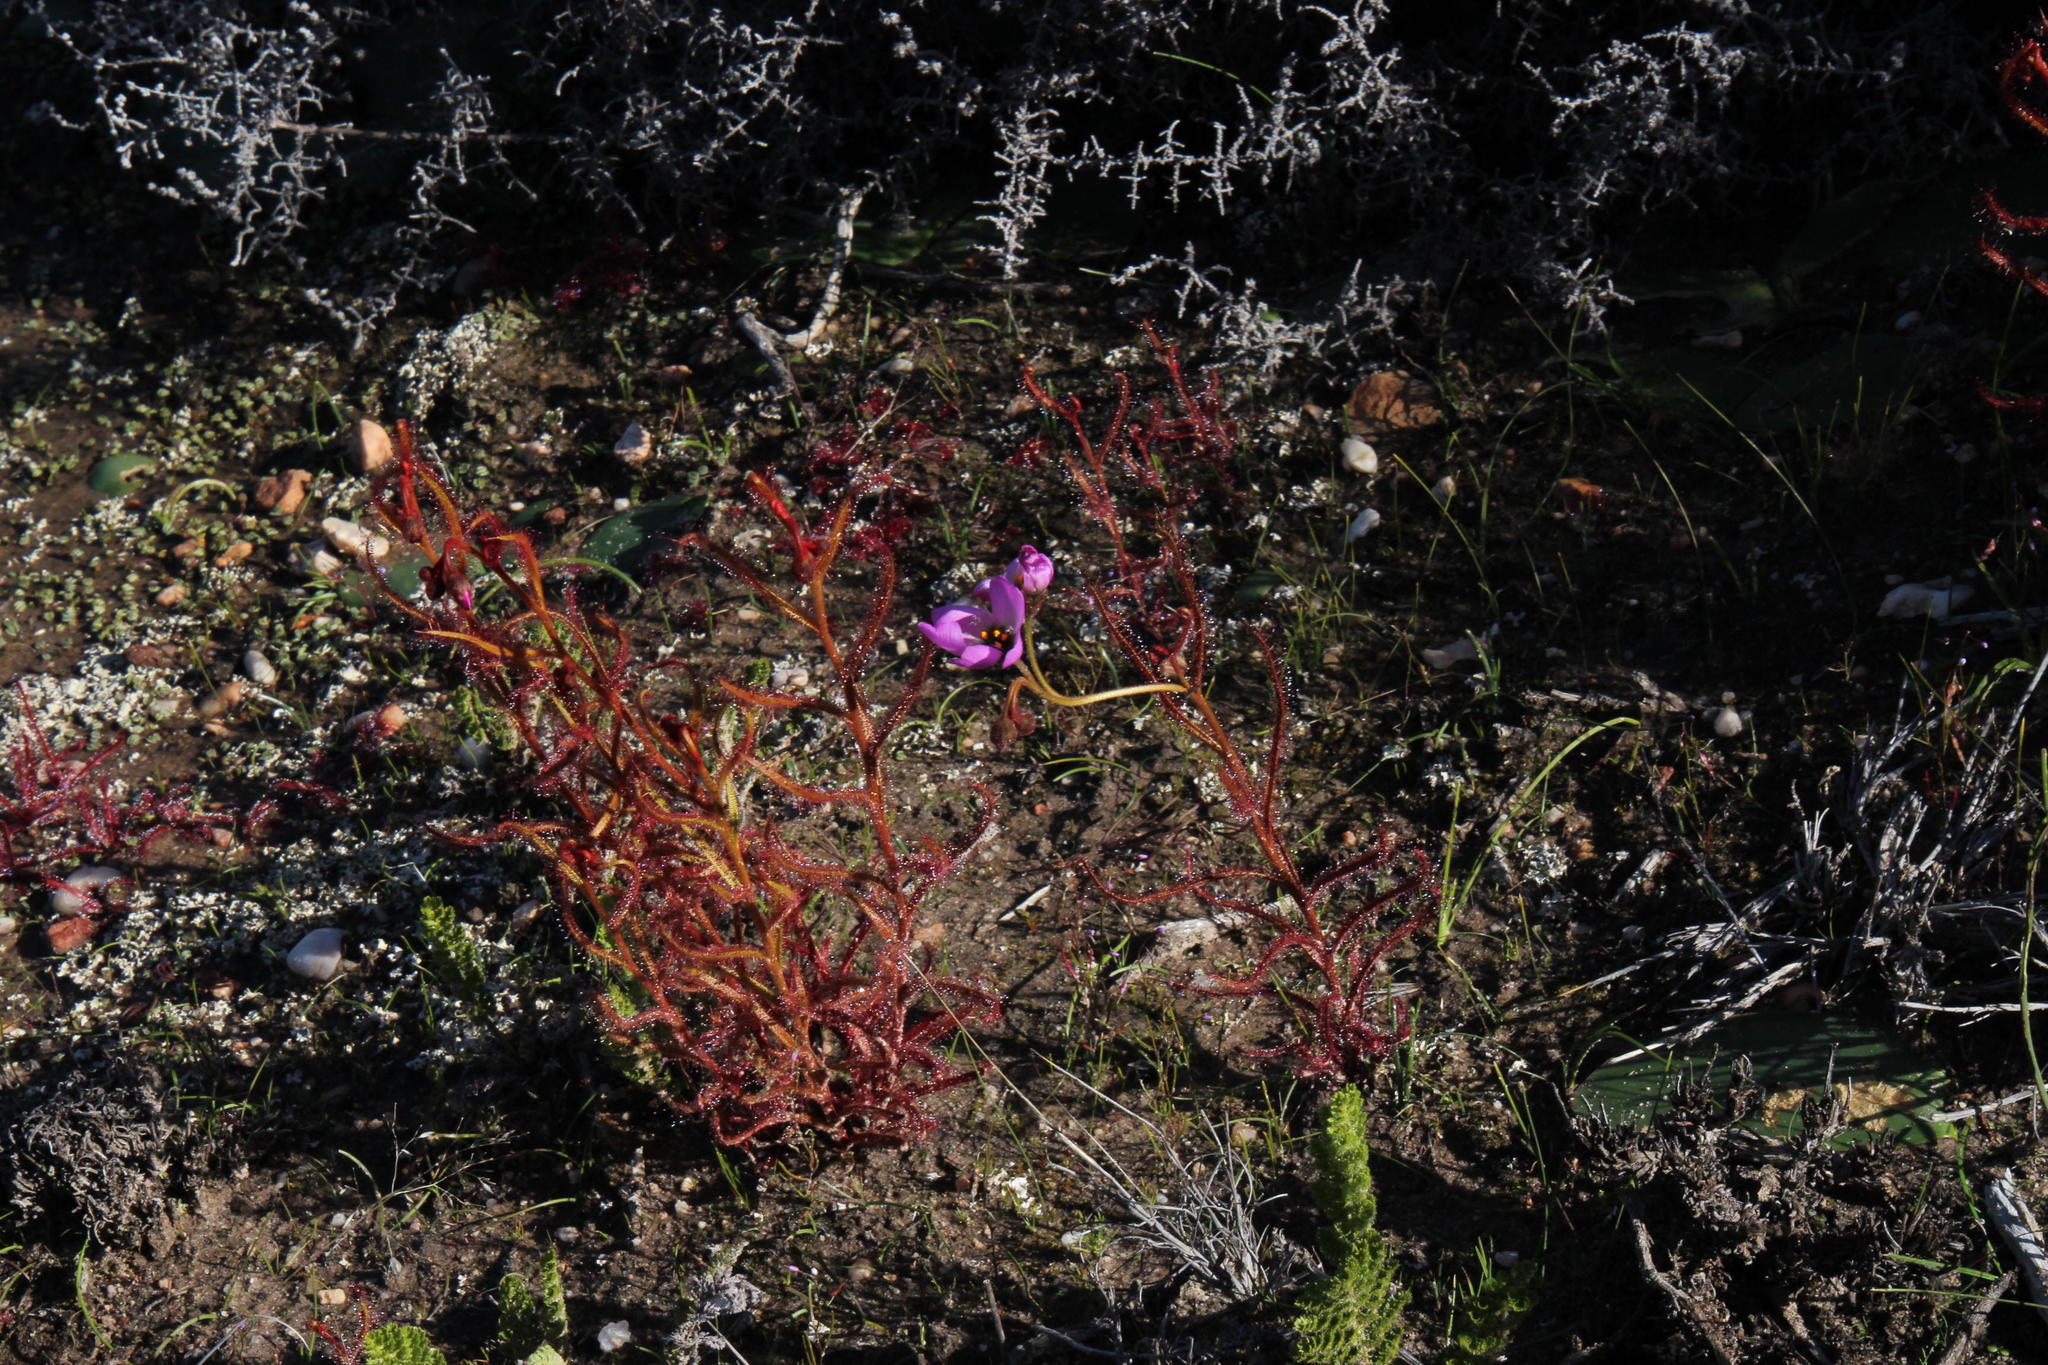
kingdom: Plantae
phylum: Tracheophyta
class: Magnoliopsida
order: Caryophyllales
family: Droseraceae
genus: Drosera
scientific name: Drosera cistiflora
